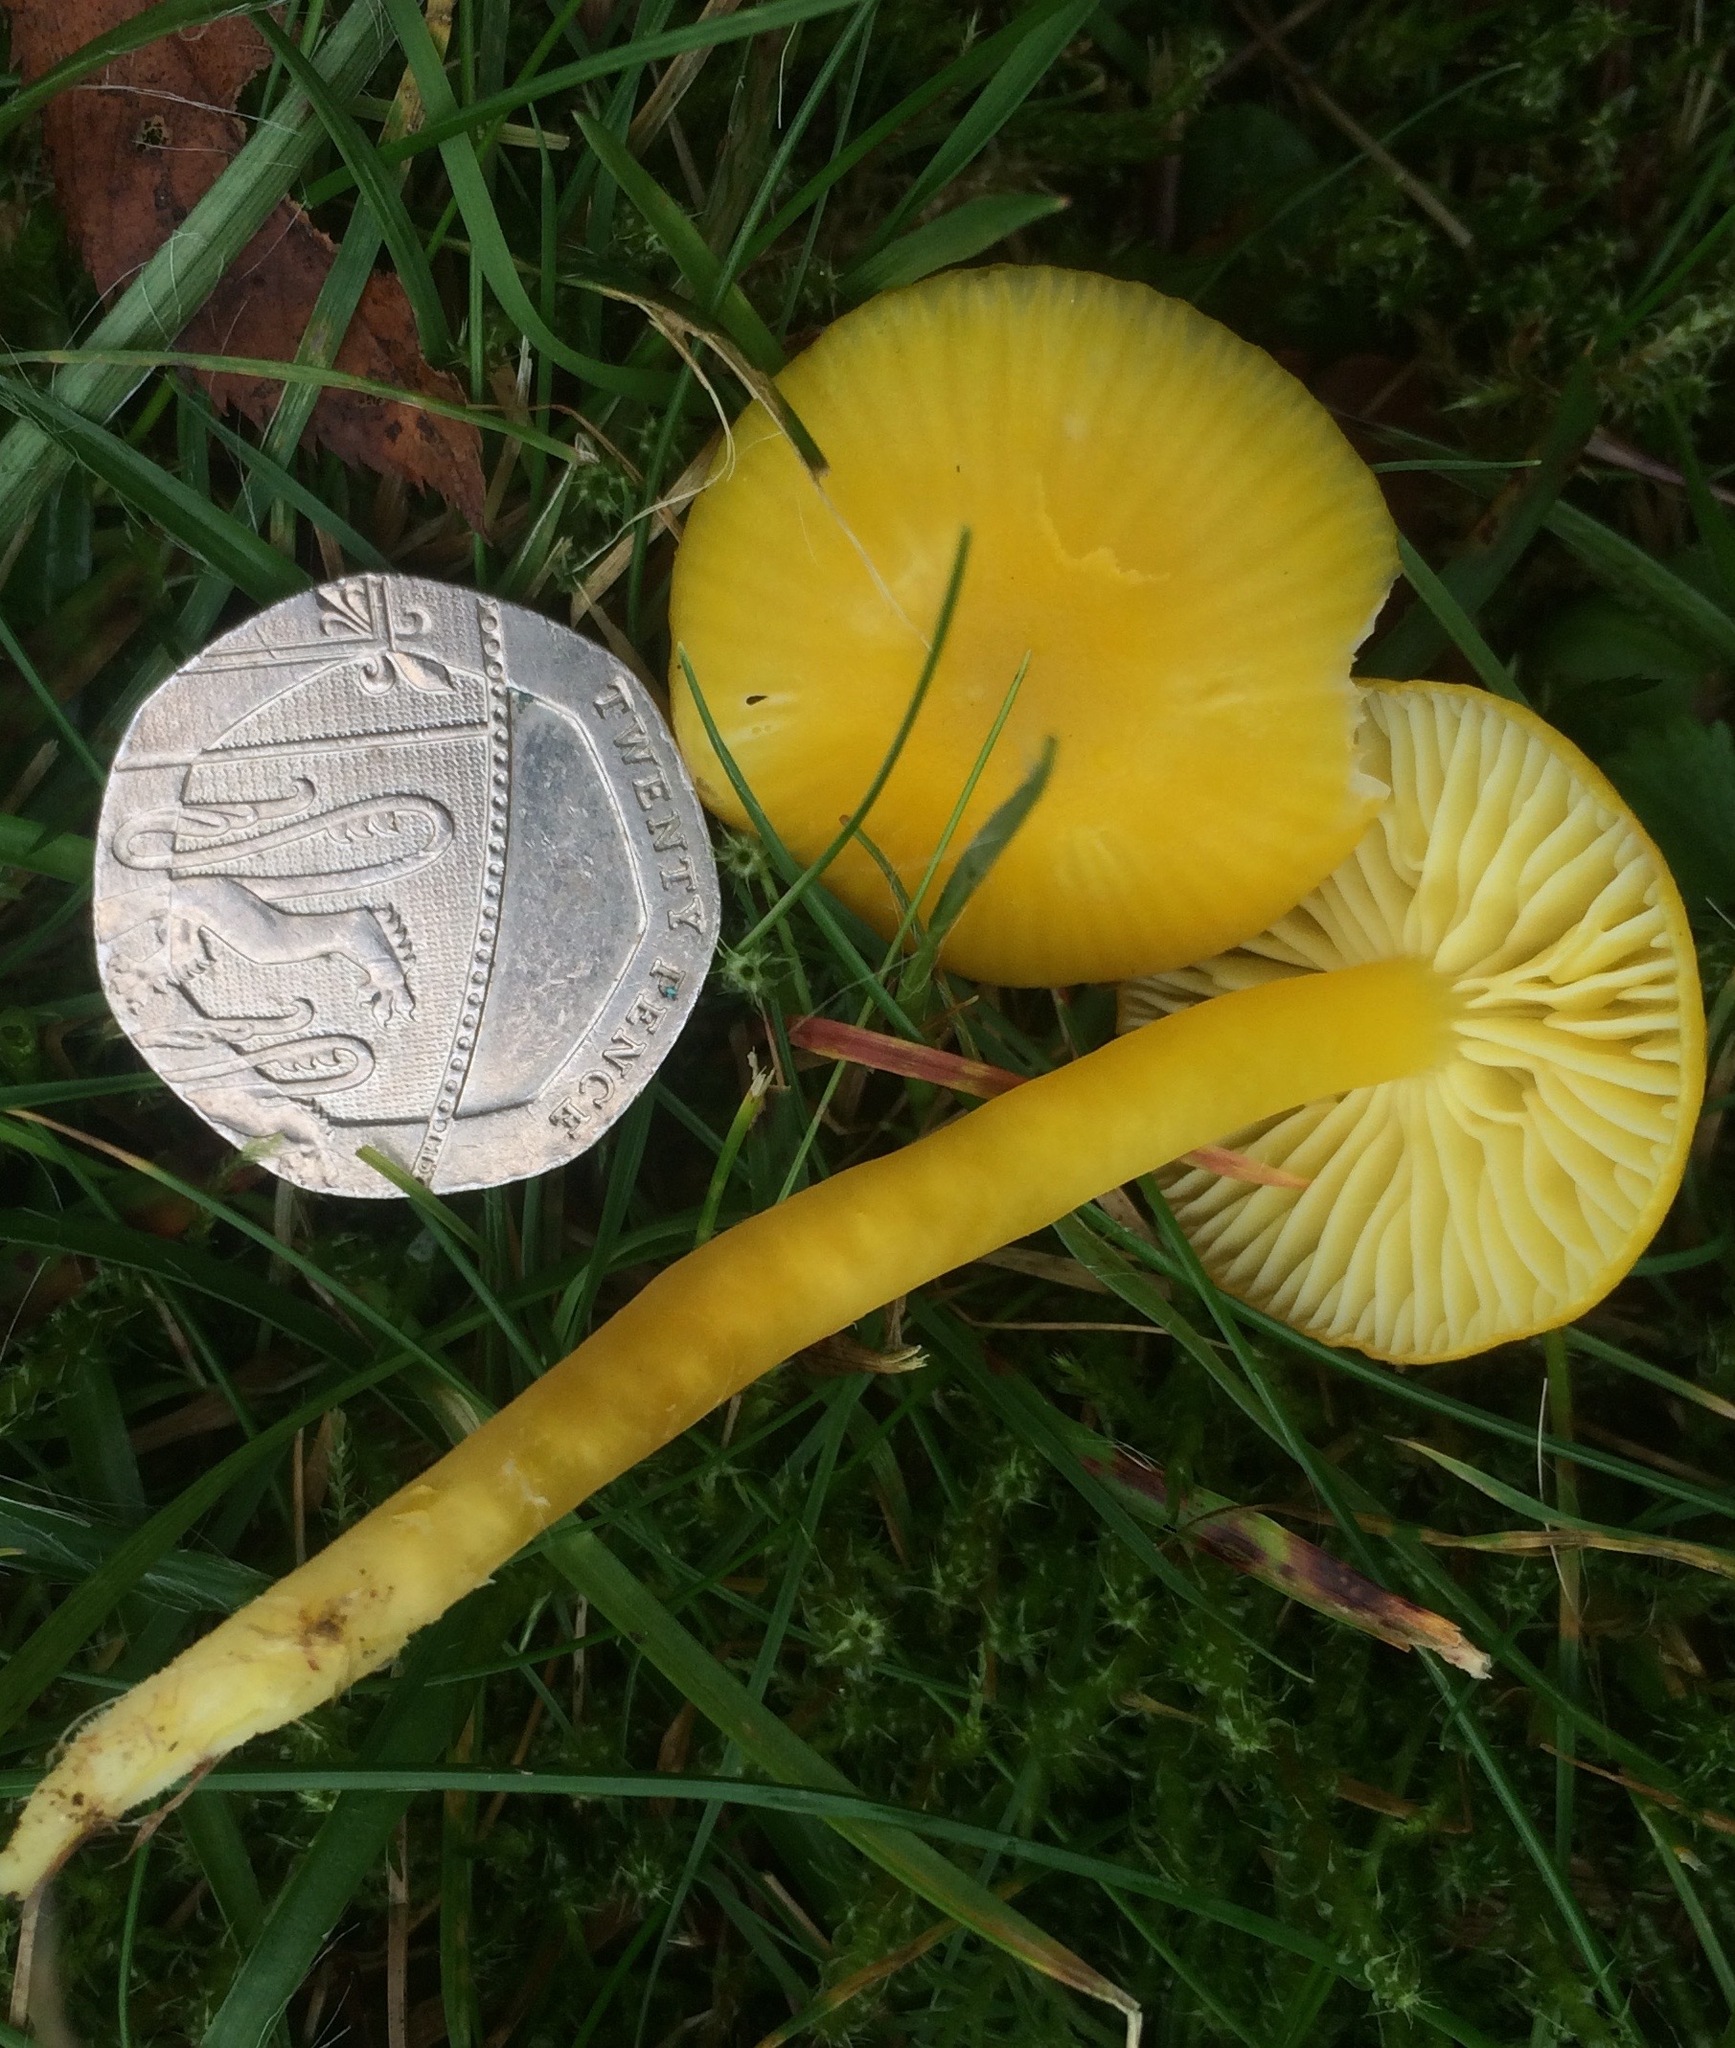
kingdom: Fungi
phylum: Basidiomycota
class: Agaricomycetes
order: Agaricales
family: Hygrophoraceae
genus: Hygrocybe
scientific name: Hygrocybe ceracea
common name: Butter waxcap
